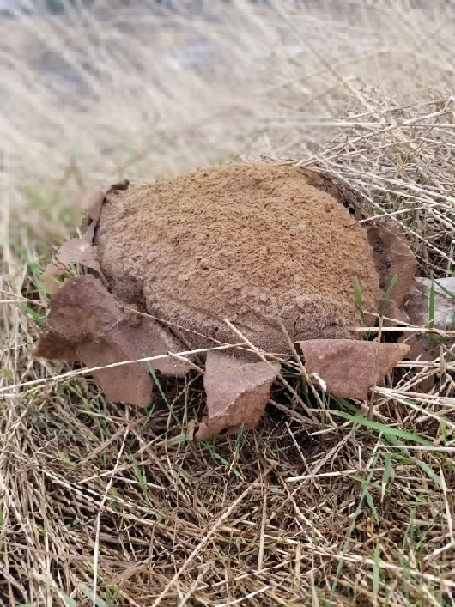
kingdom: Fungi
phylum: Basidiomycota
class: Agaricomycetes
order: Agaricales
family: Lycoperdaceae
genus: Calvatia
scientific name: Calvatia gigantea
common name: Giant puffball
